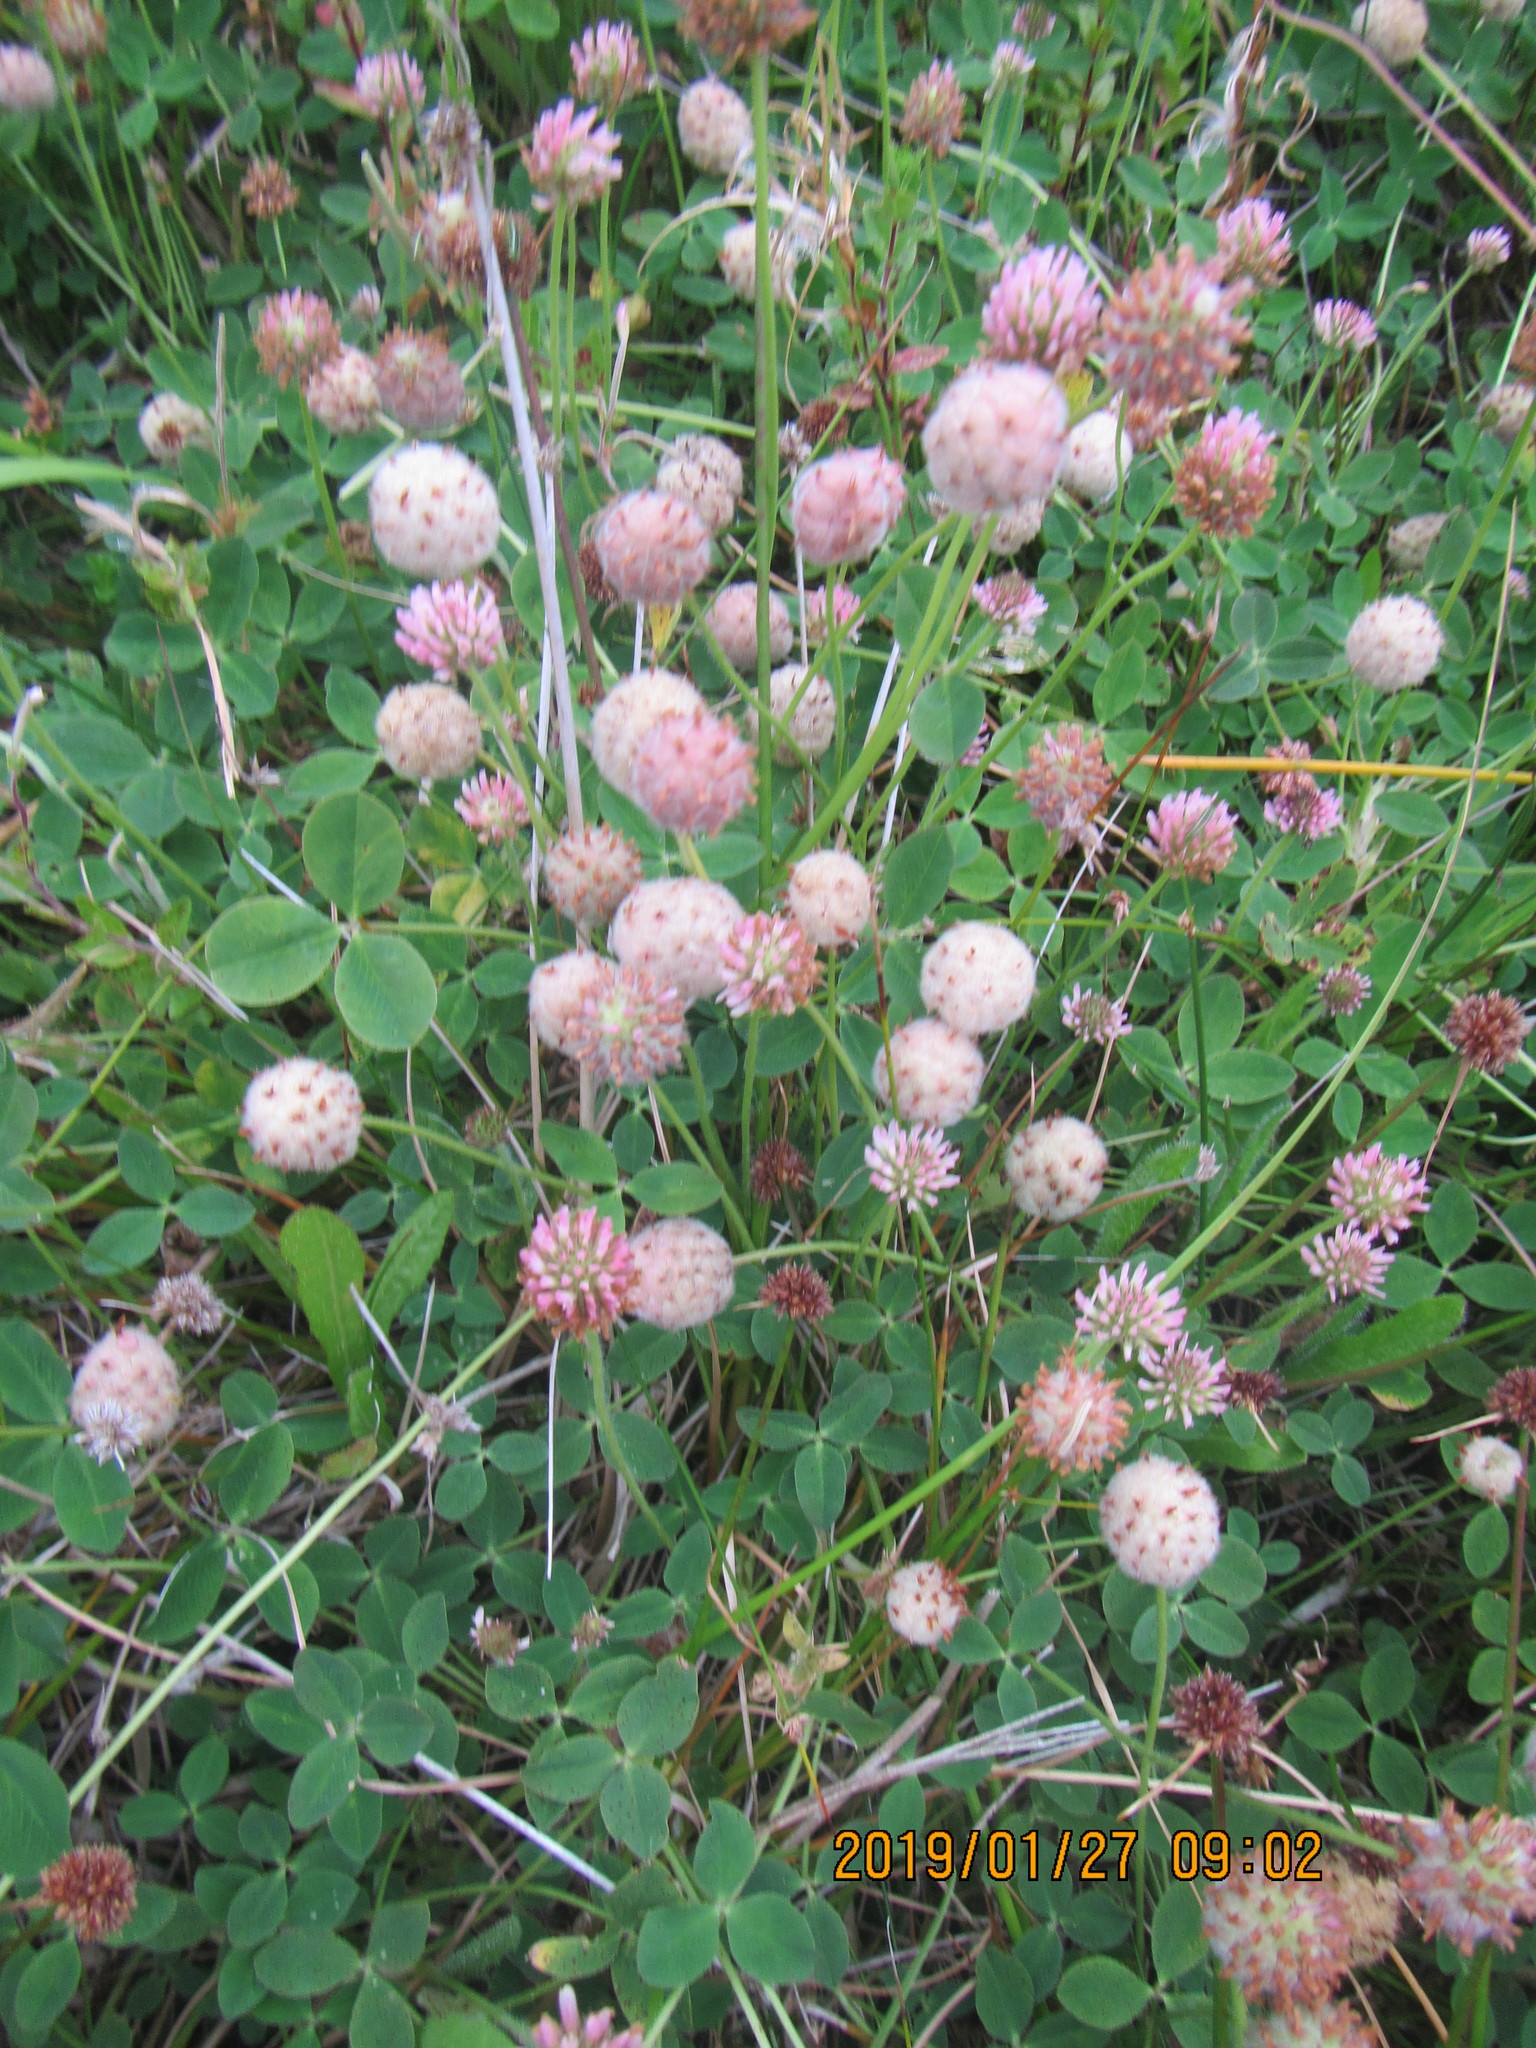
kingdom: Plantae
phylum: Tracheophyta
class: Magnoliopsida
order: Fabales
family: Fabaceae
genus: Trifolium
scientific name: Trifolium fragiferum
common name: Strawberry clover
